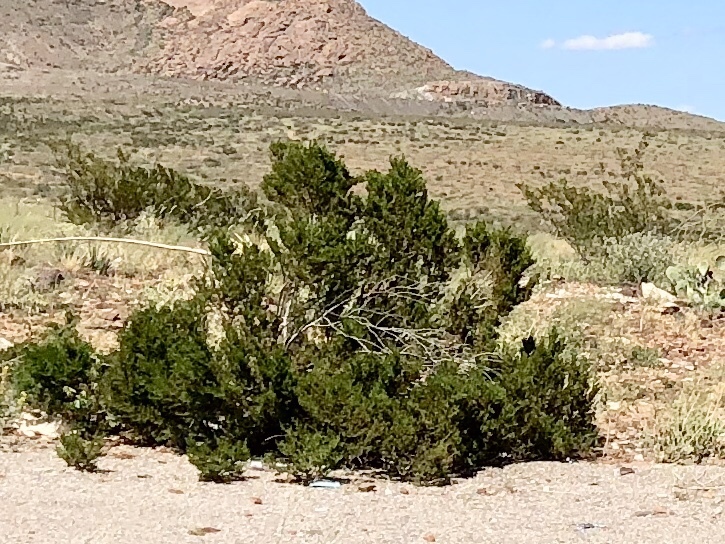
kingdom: Plantae
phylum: Tracheophyta
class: Magnoliopsida
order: Zygophyllales
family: Zygophyllaceae
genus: Larrea
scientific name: Larrea tridentata
